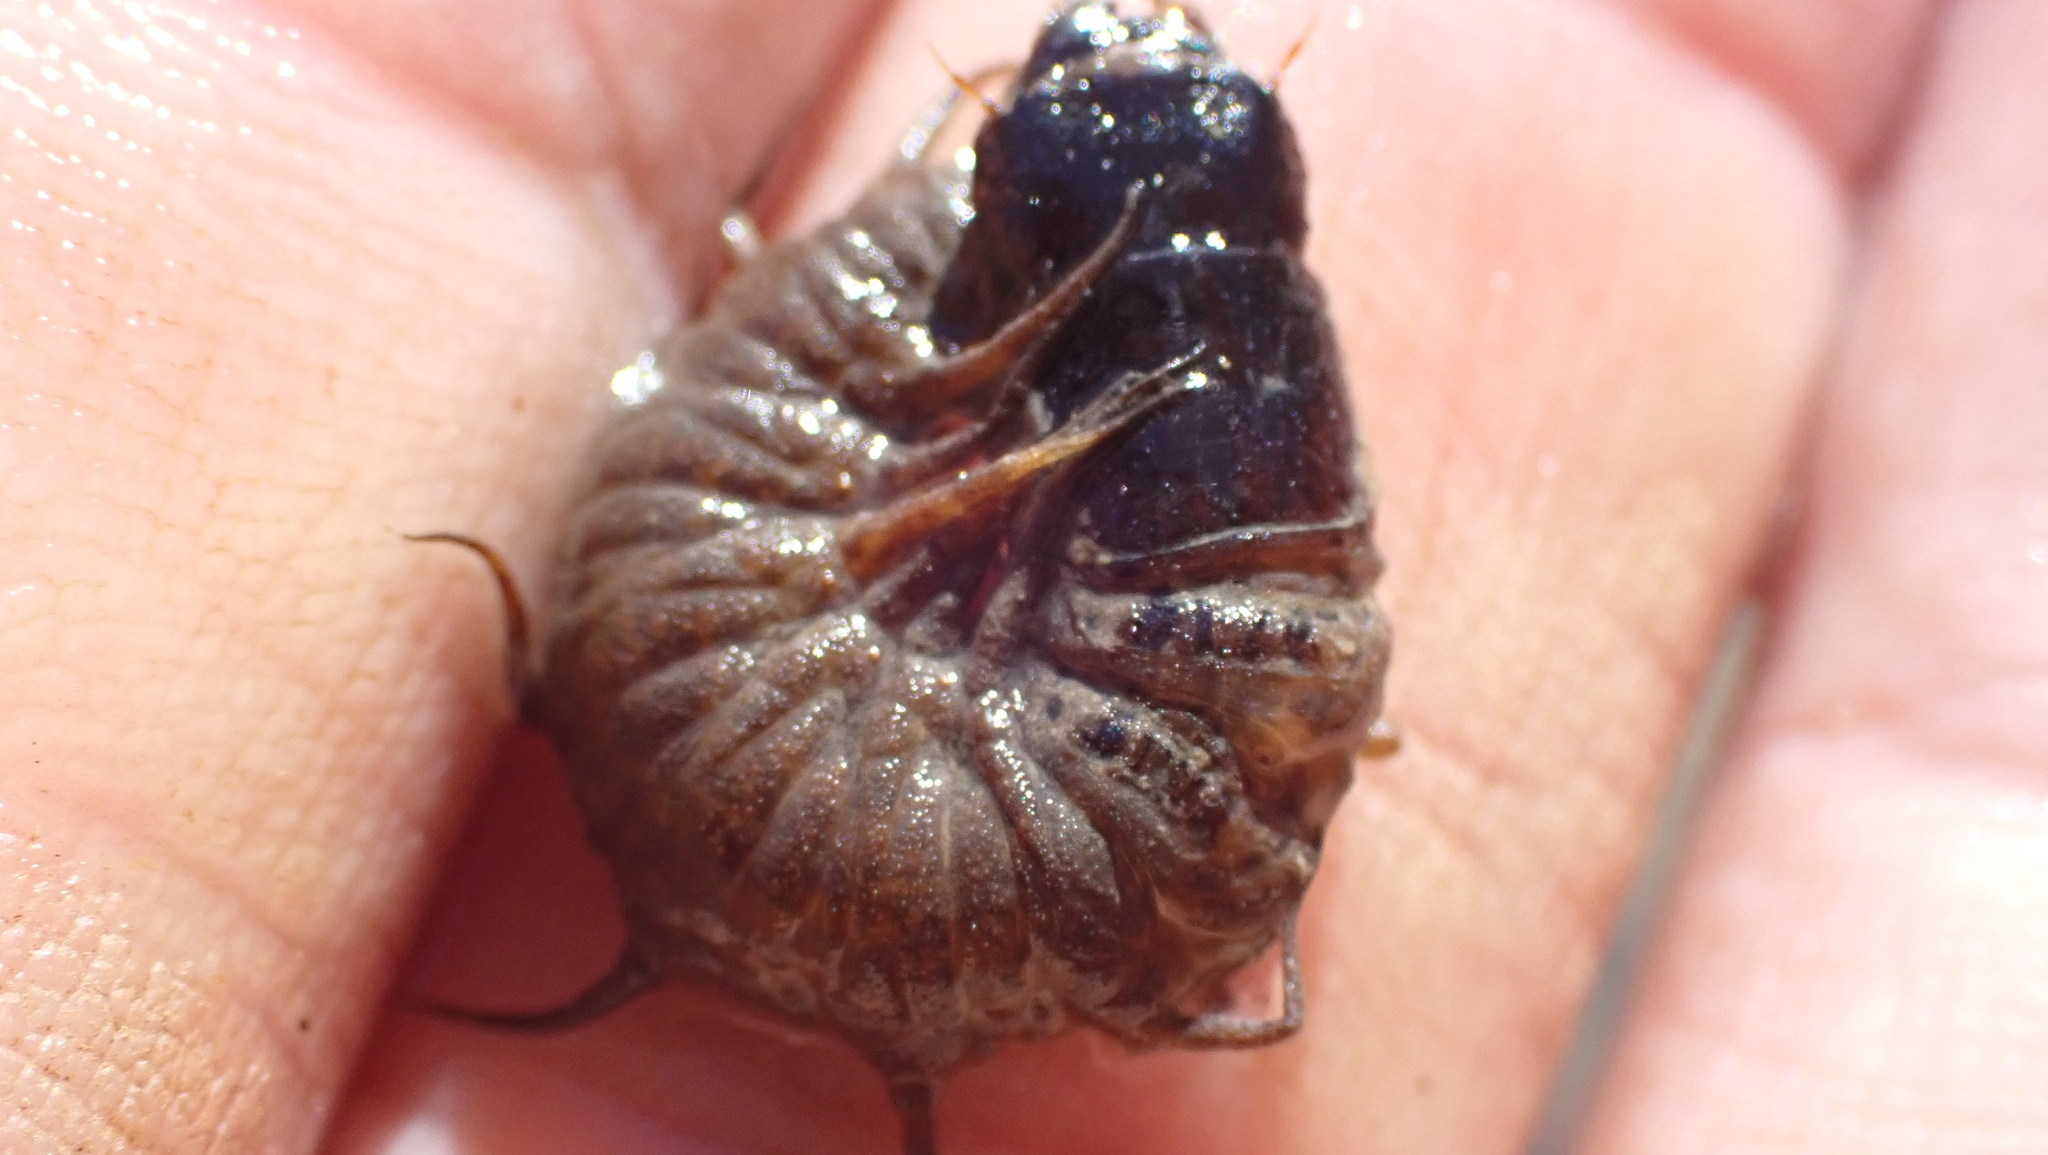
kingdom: Animalia
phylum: Arthropoda
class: Insecta
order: Megaloptera
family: Corydalidae
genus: Nigronia
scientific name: Nigronia
